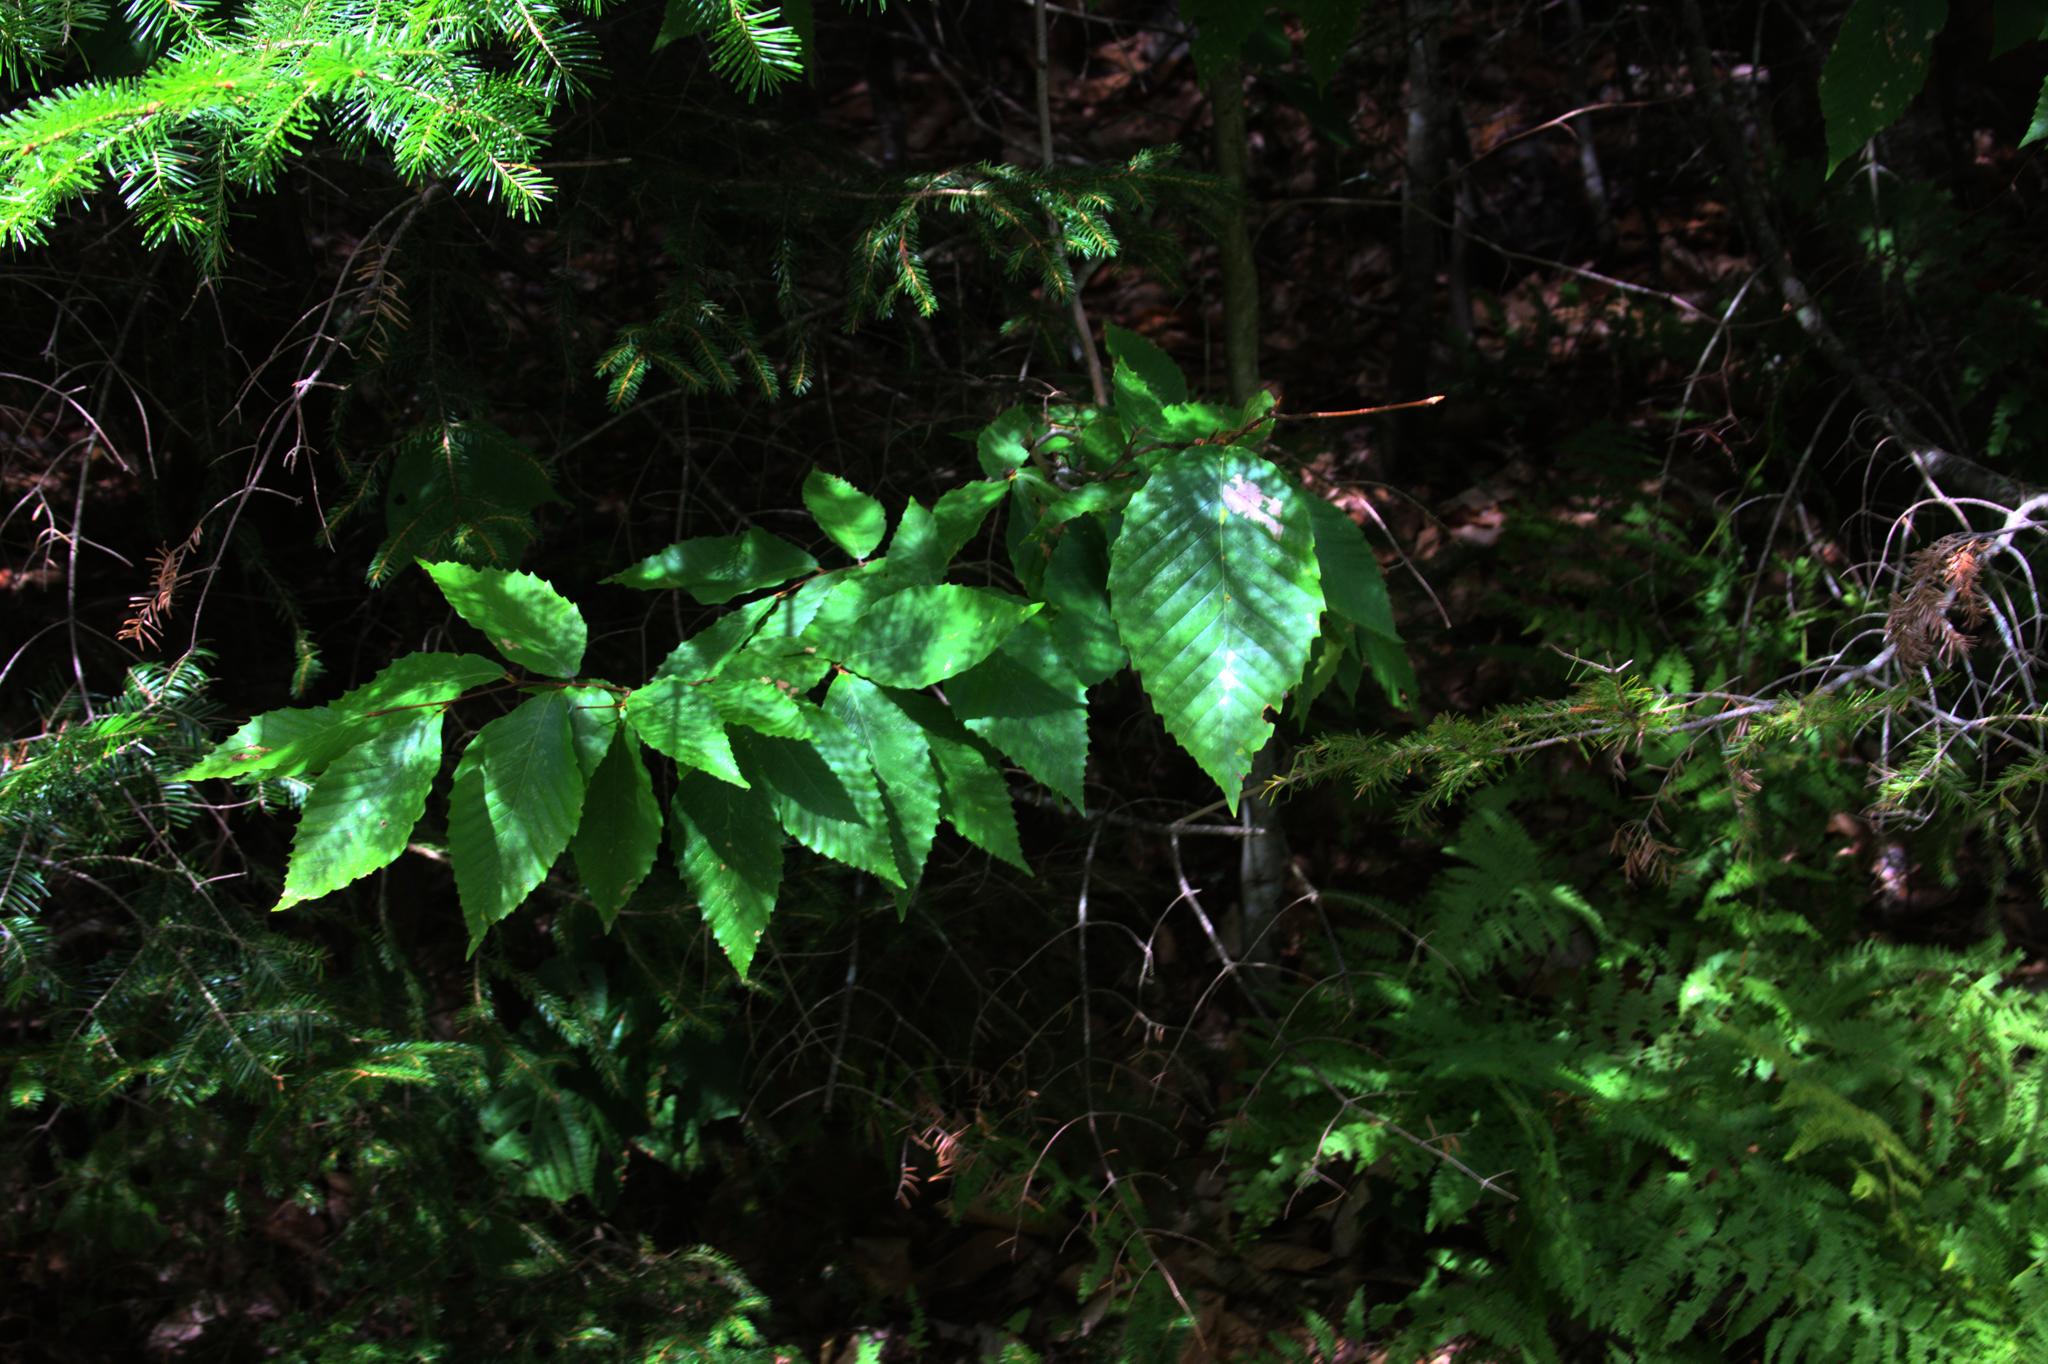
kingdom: Plantae
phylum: Tracheophyta
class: Magnoliopsida
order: Fagales
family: Fagaceae
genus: Fagus
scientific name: Fagus grandifolia
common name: American beech
